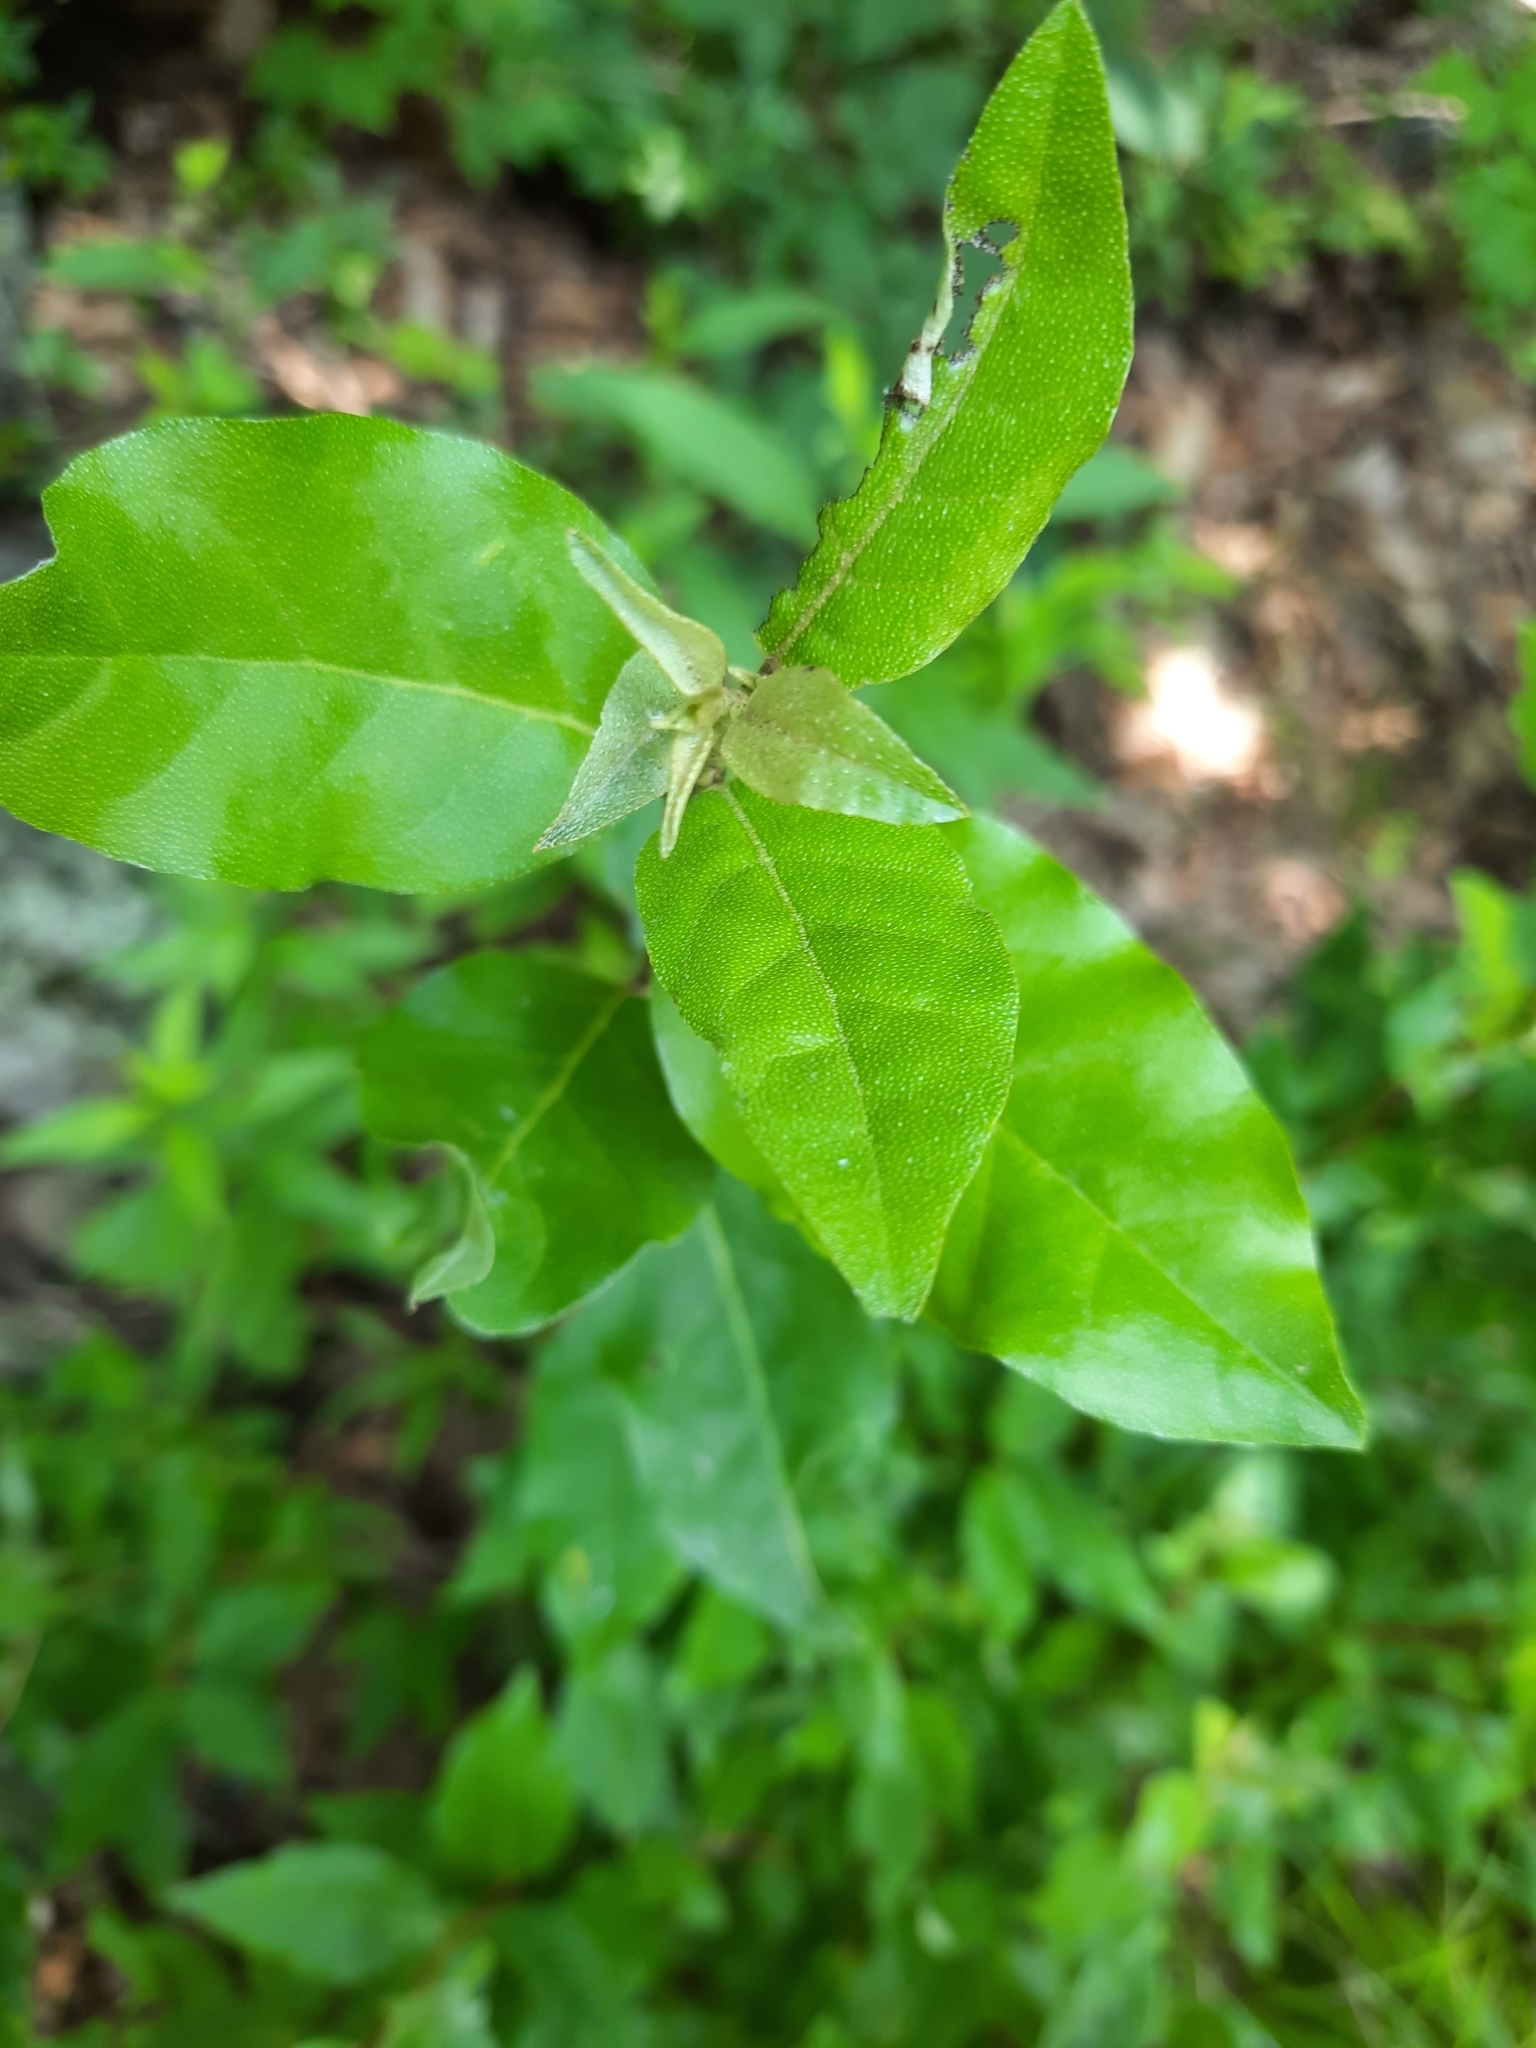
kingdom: Plantae
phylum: Tracheophyta
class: Magnoliopsida
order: Rosales
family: Elaeagnaceae
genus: Elaeagnus
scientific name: Elaeagnus umbellata
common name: Autumn olive
